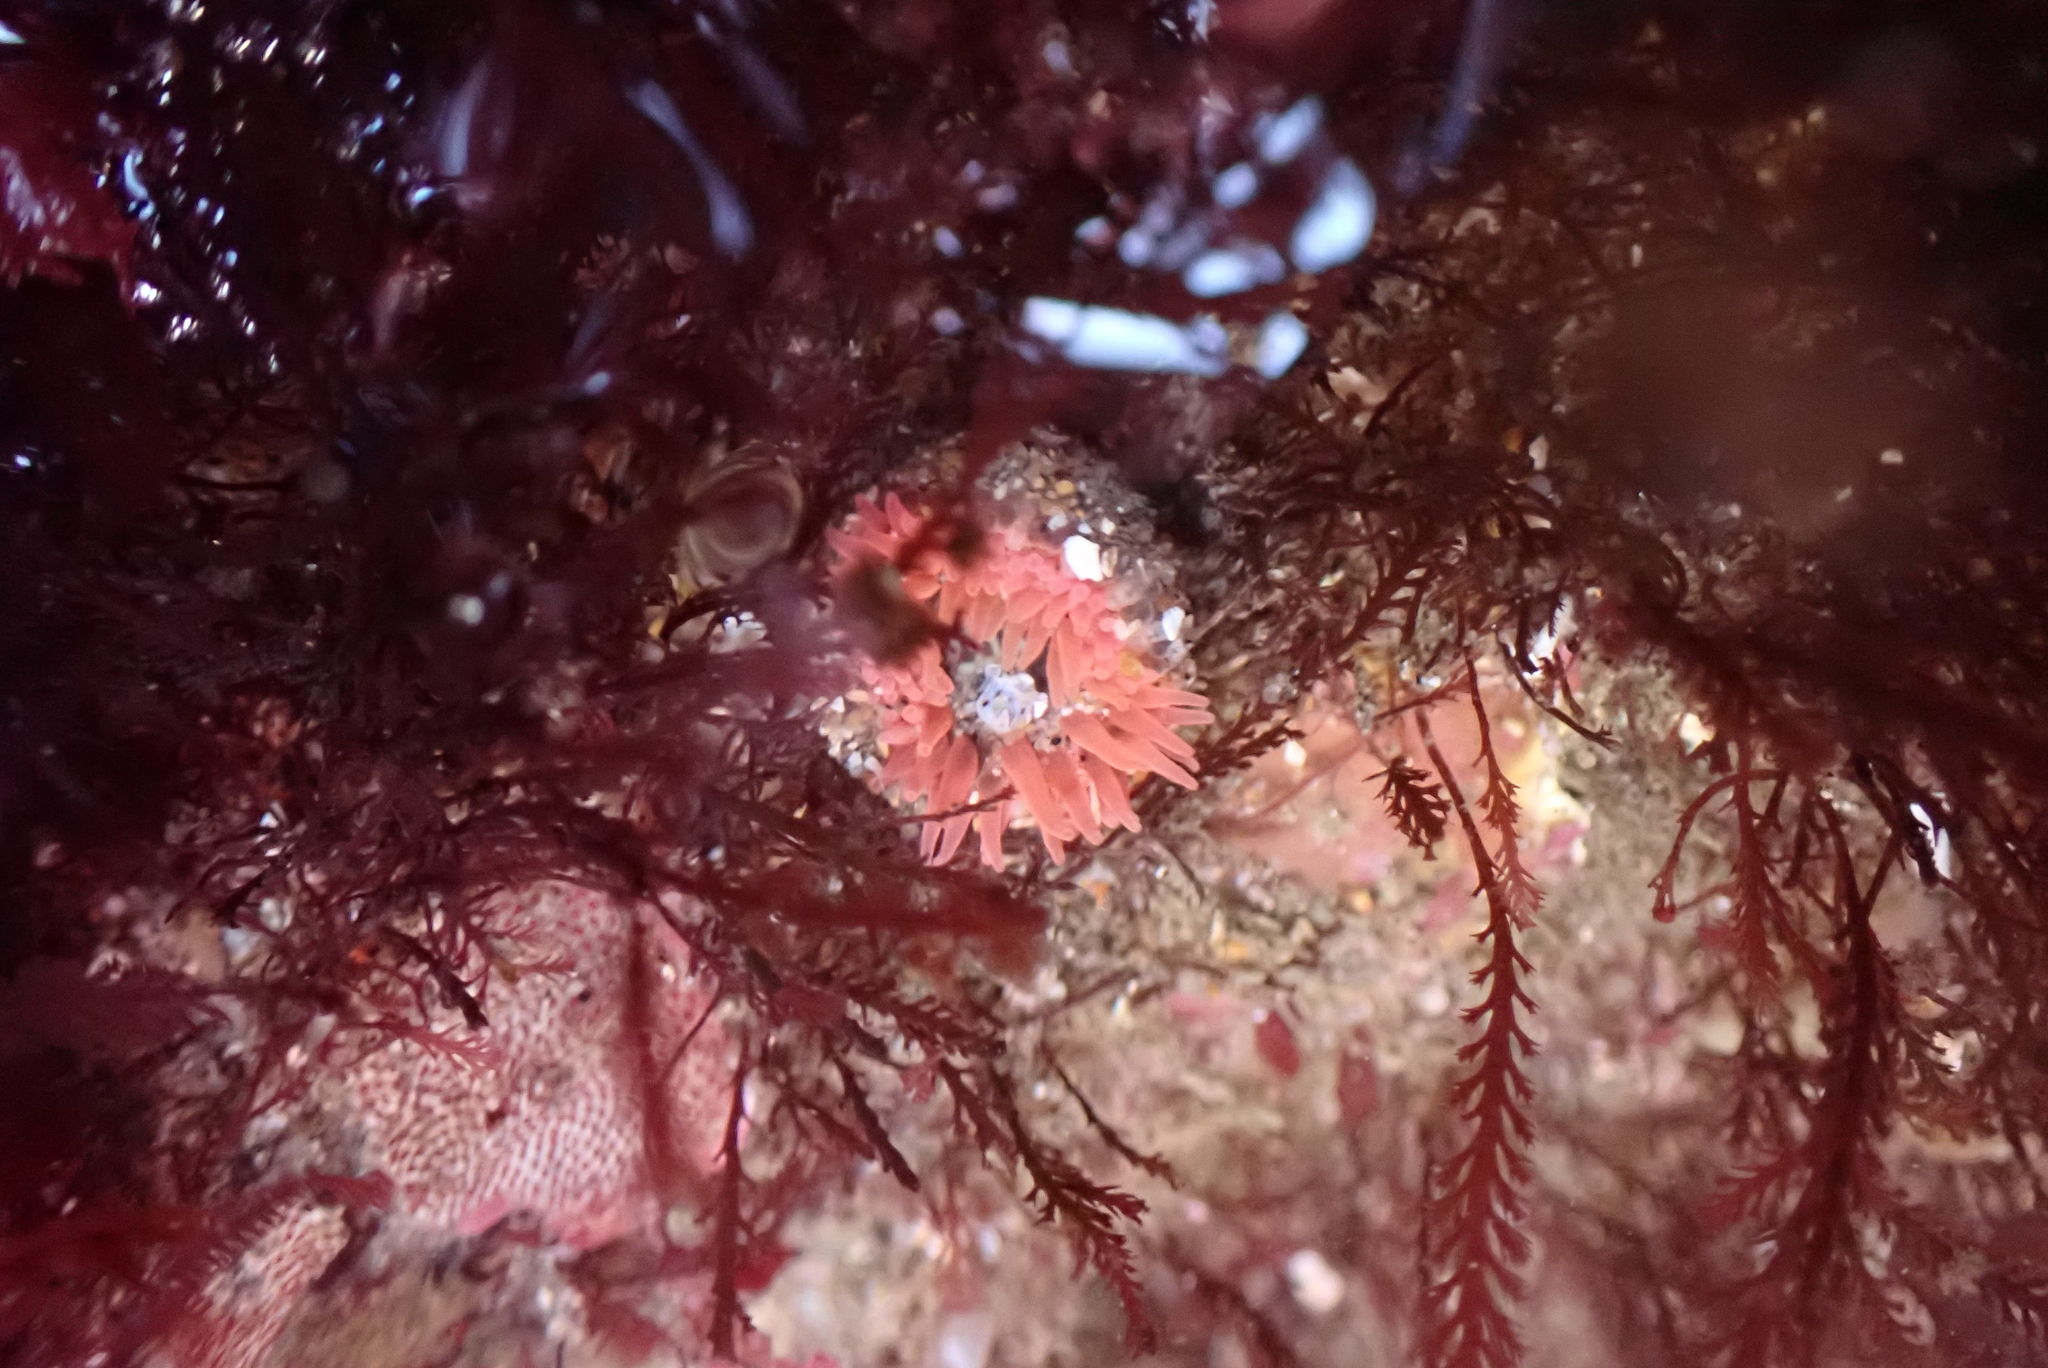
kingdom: Animalia
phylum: Cnidaria
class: Anthozoa
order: Actiniaria
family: Actiniidae
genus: Anthopleura
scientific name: Anthopleura artemisia
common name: Buried sea anemone
